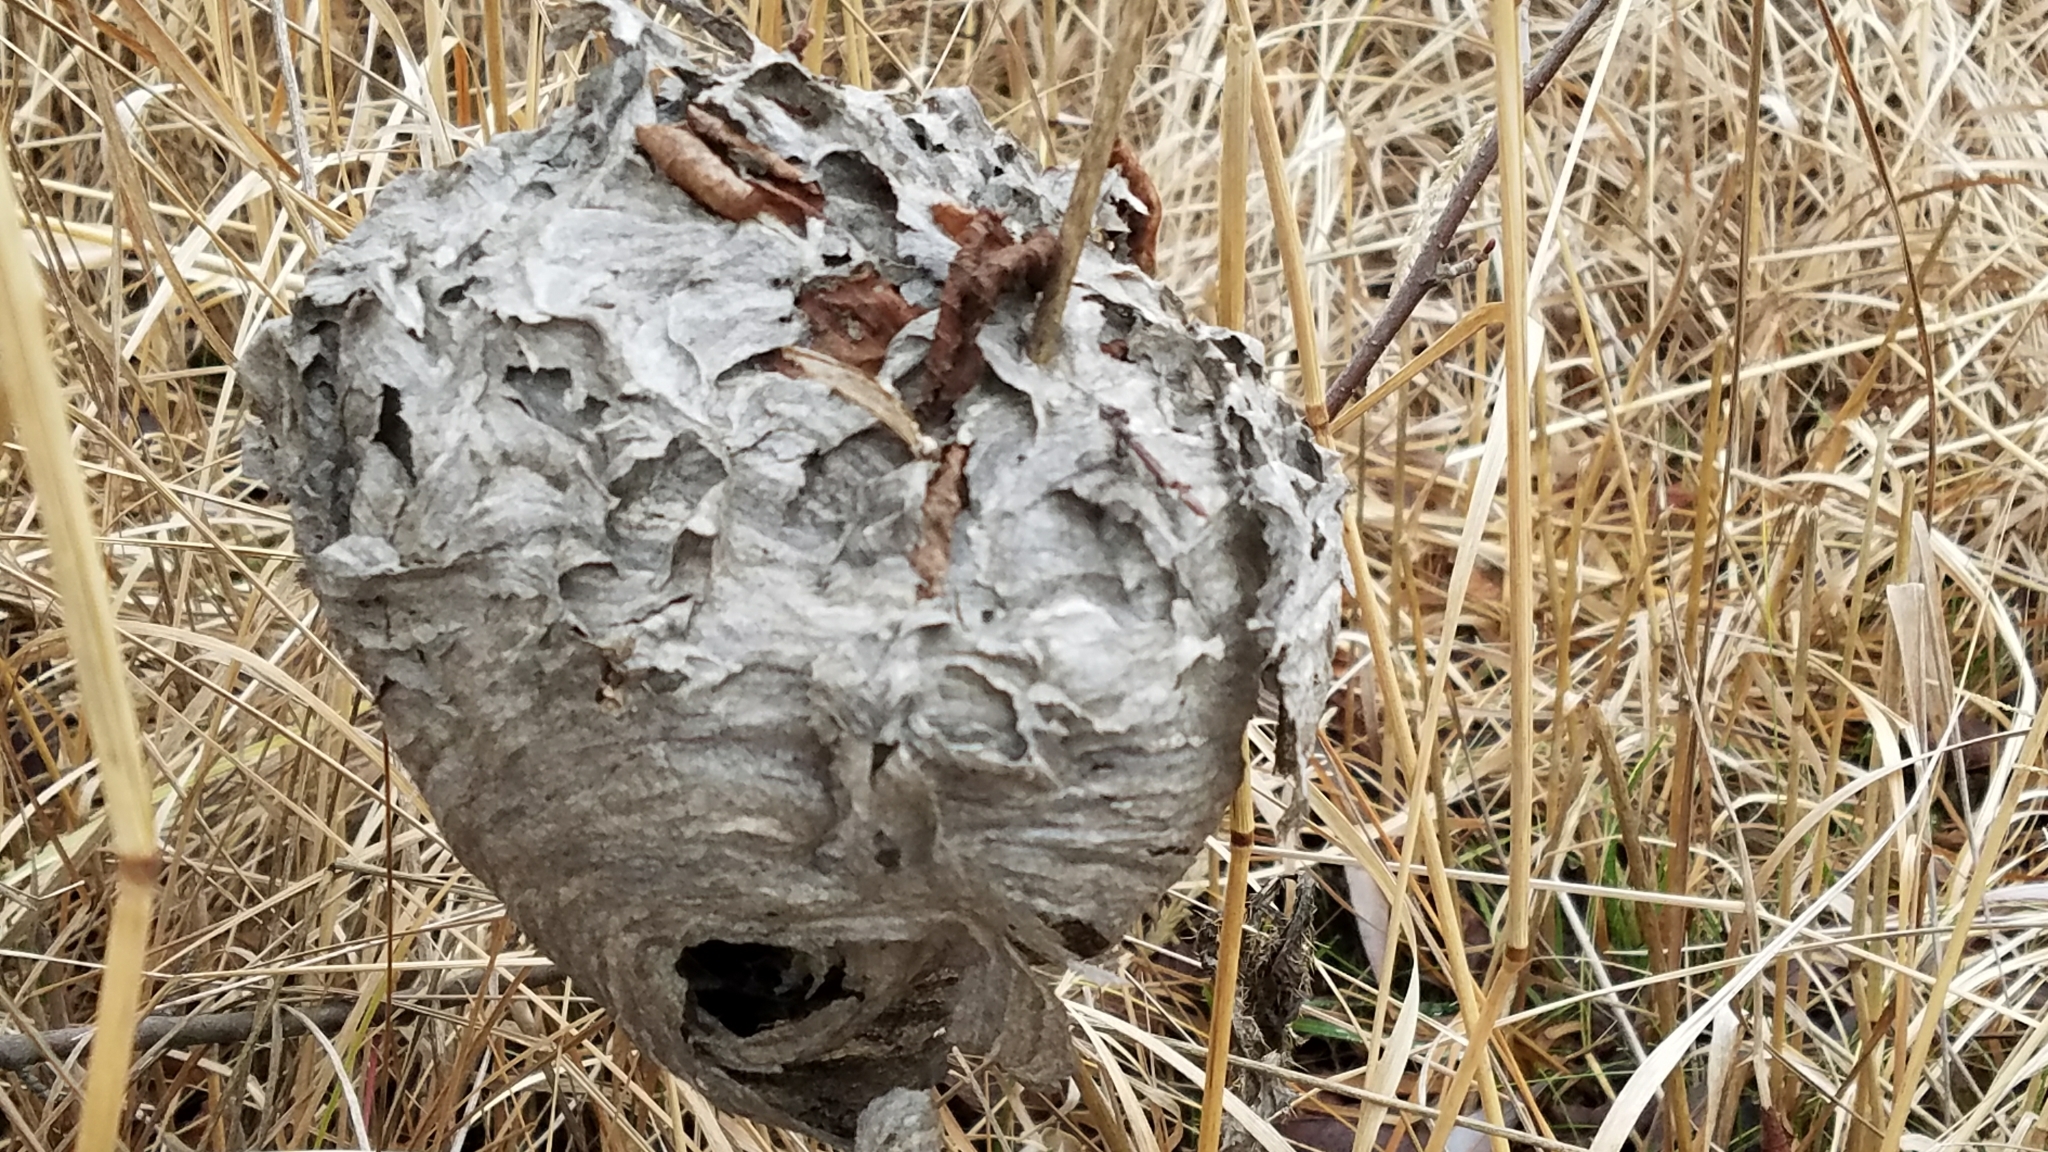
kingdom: Animalia
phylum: Arthropoda
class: Insecta
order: Hymenoptera
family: Vespidae
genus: Dolichovespula
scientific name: Dolichovespula
